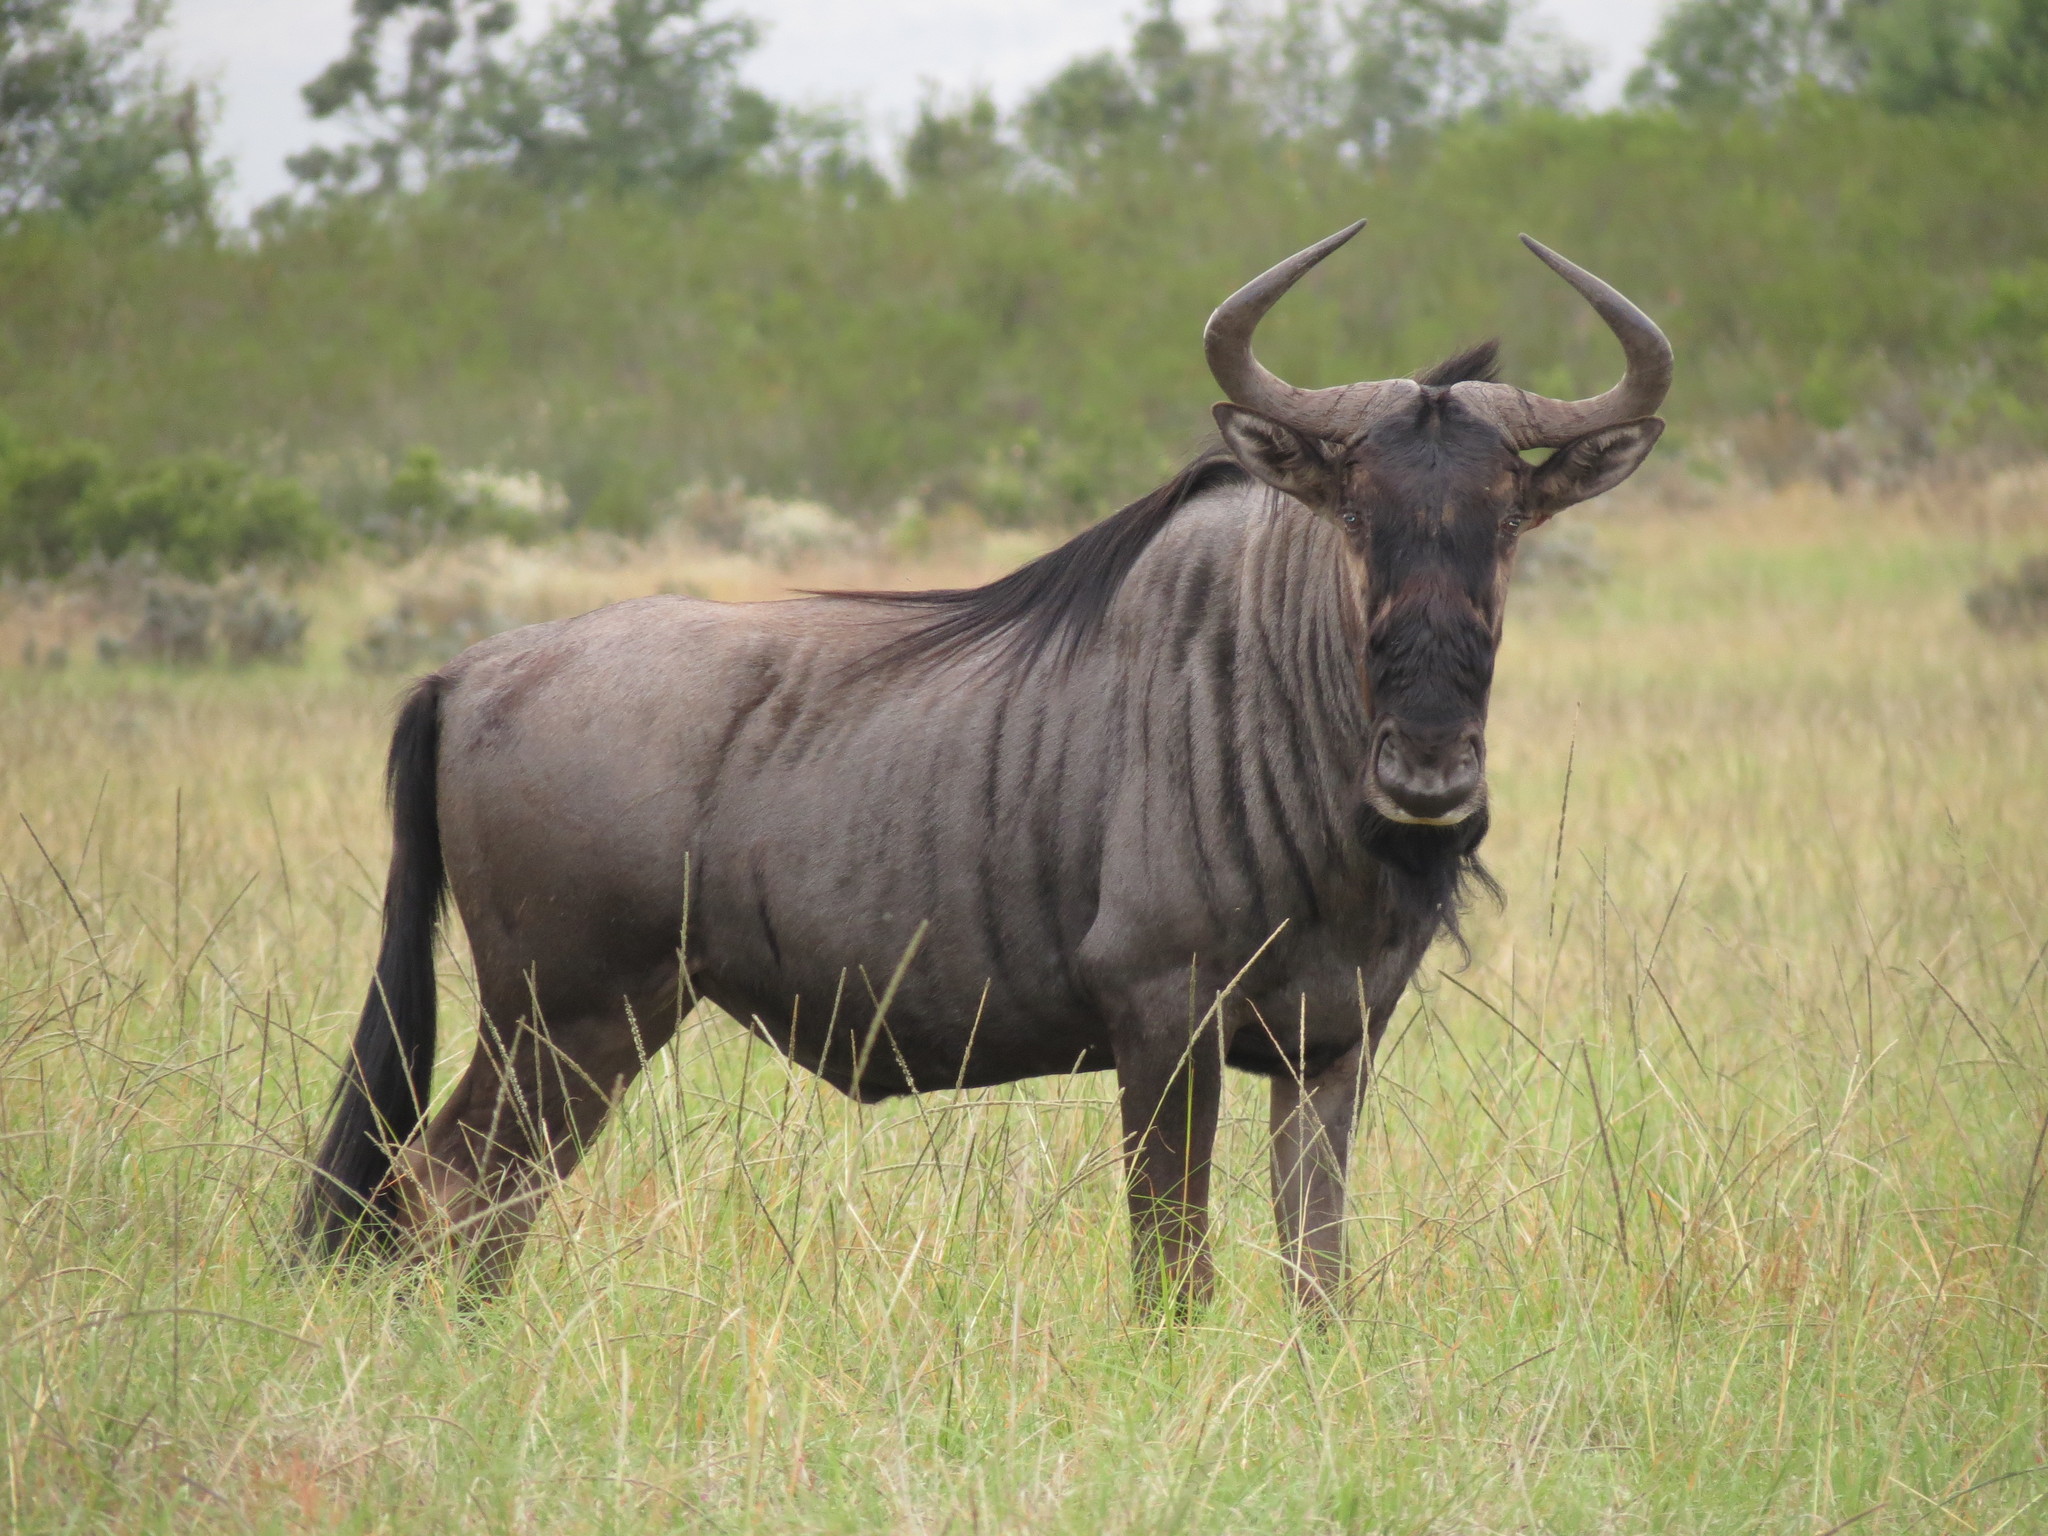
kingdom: Animalia
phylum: Chordata
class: Mammalia
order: Artiodactyla
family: Bovidae
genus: Connochaetes
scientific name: Connochaetes taurinus
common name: Blue wildebeest
